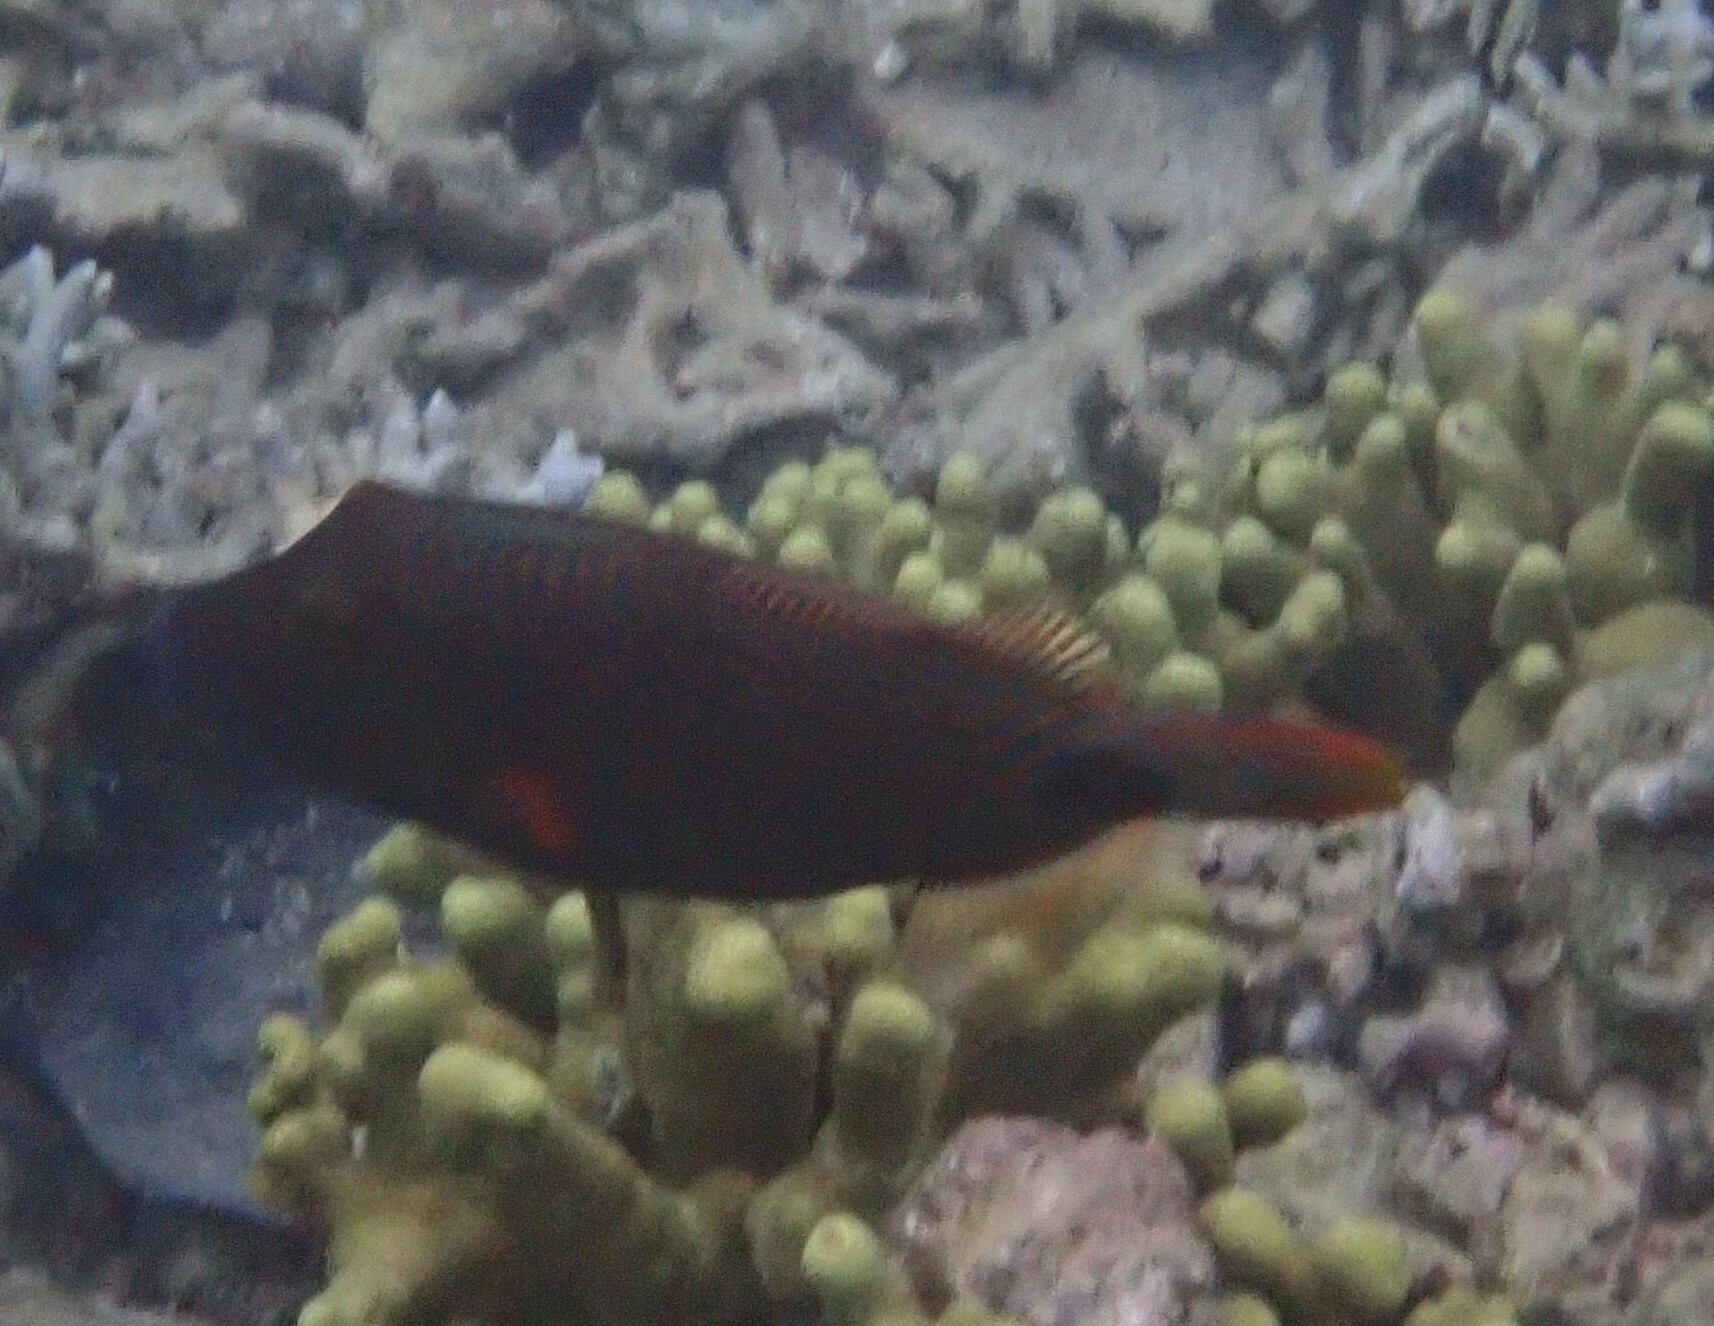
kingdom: Animalia
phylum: Chordata
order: Tetraodontiformes
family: Balistidae
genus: Balistapus
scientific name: Balistapus undulatus
